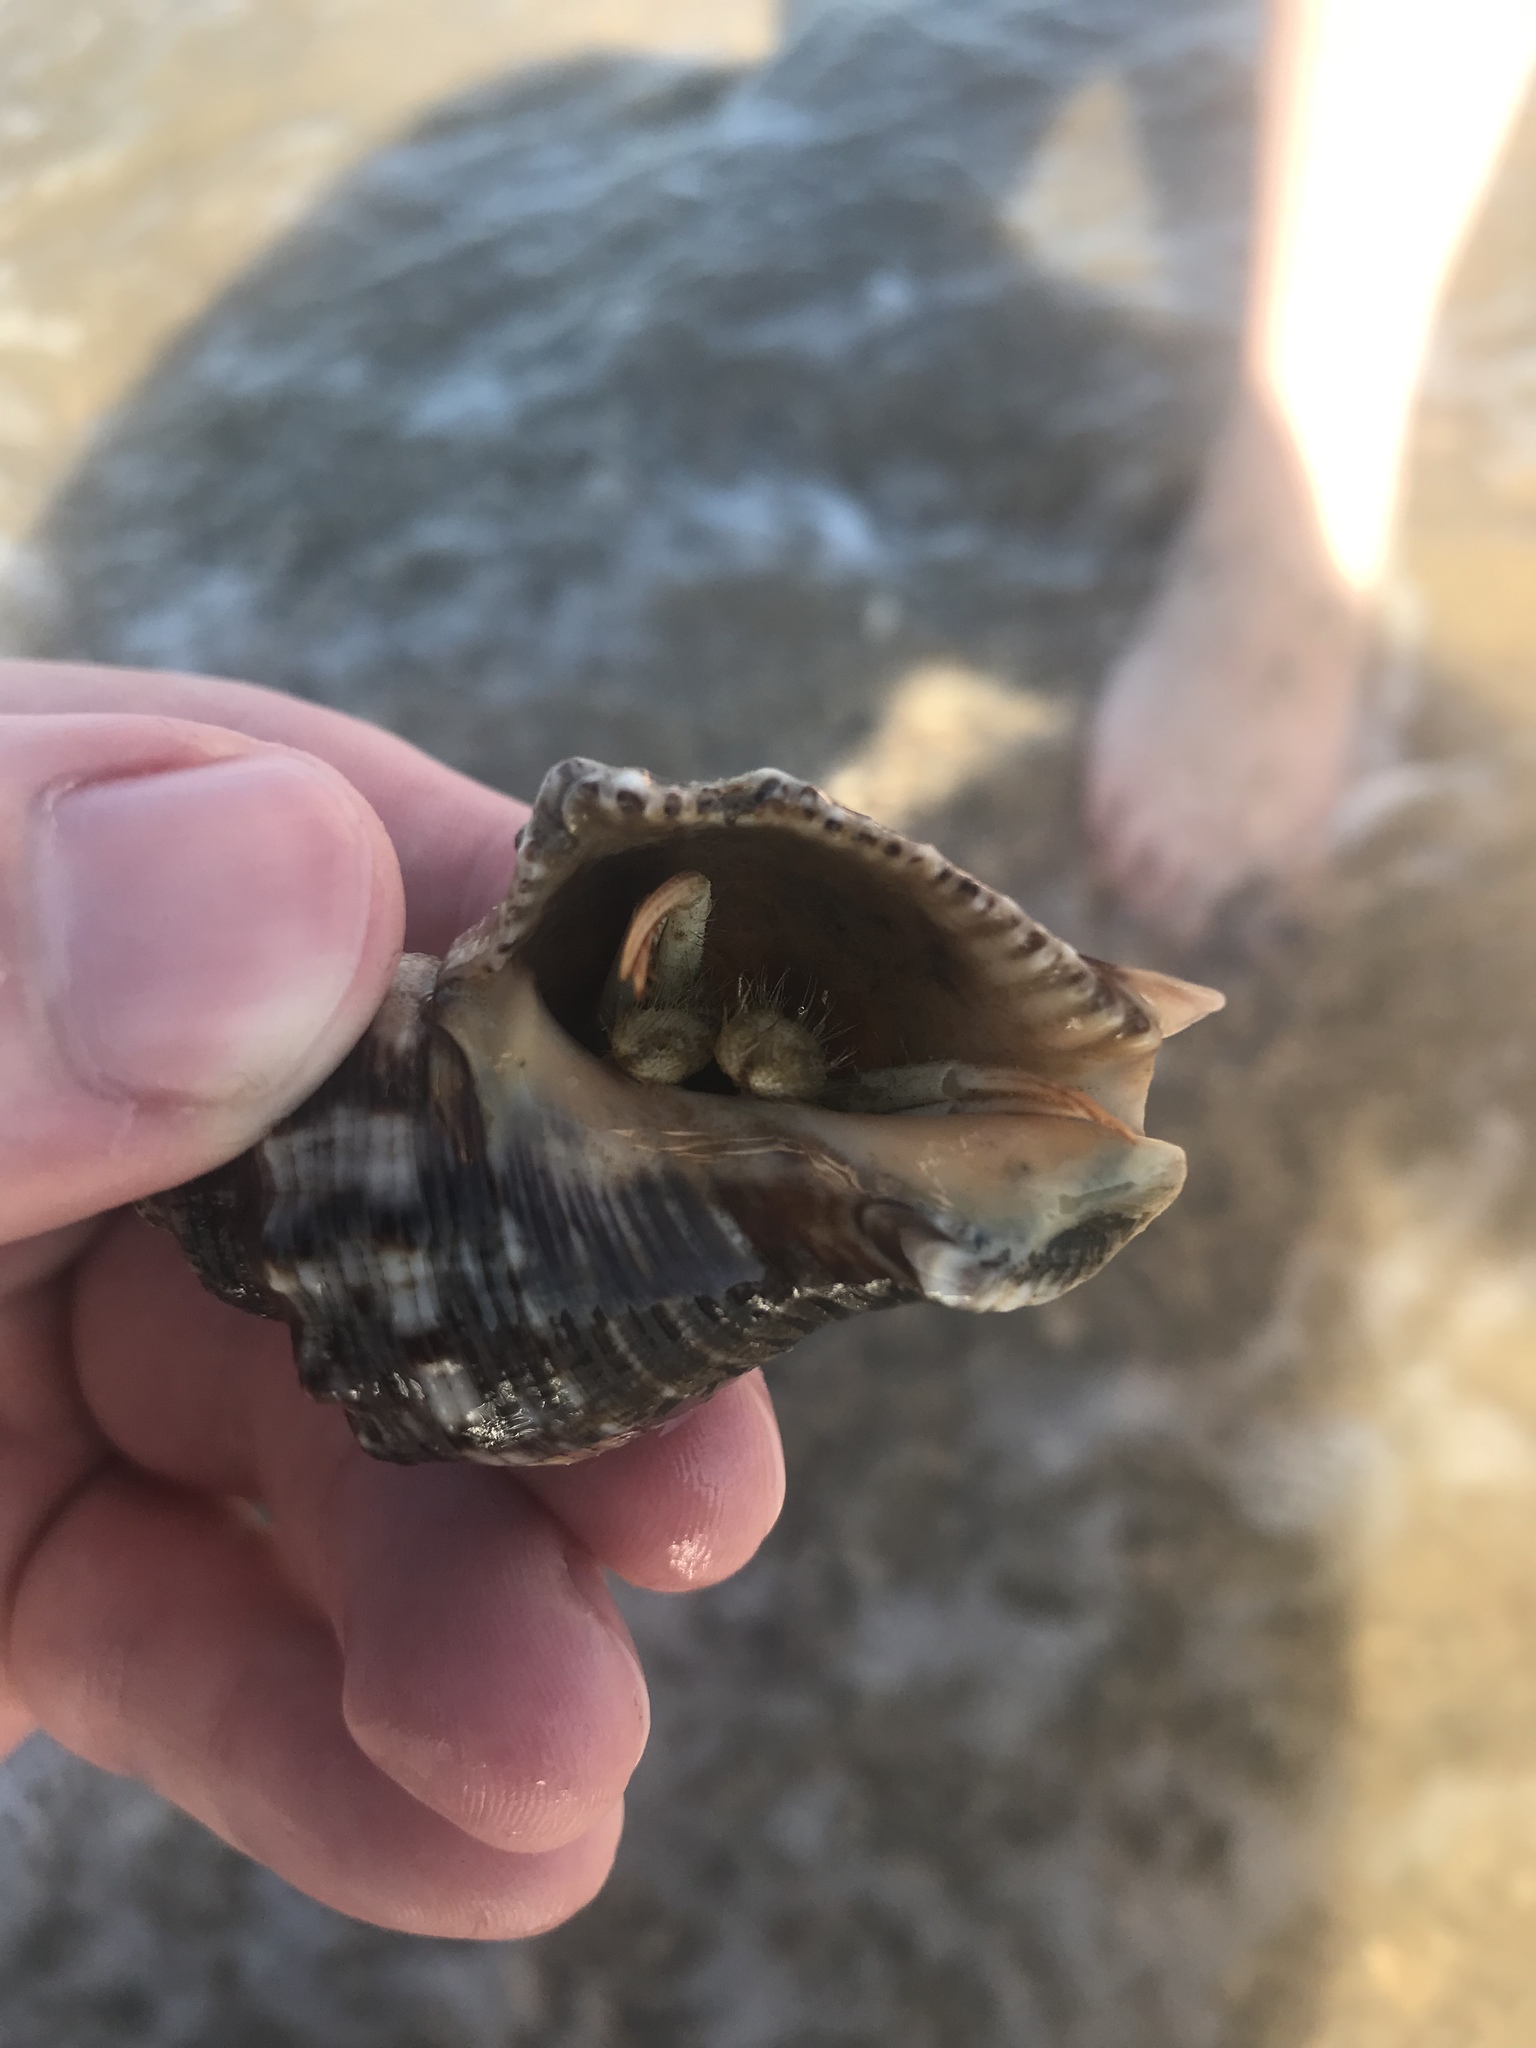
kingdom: Animalia
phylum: Arthropoda
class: Malacostraca
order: Decapoda
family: Diogenidae
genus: Isocheles
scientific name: Isocheles wurdemanni
